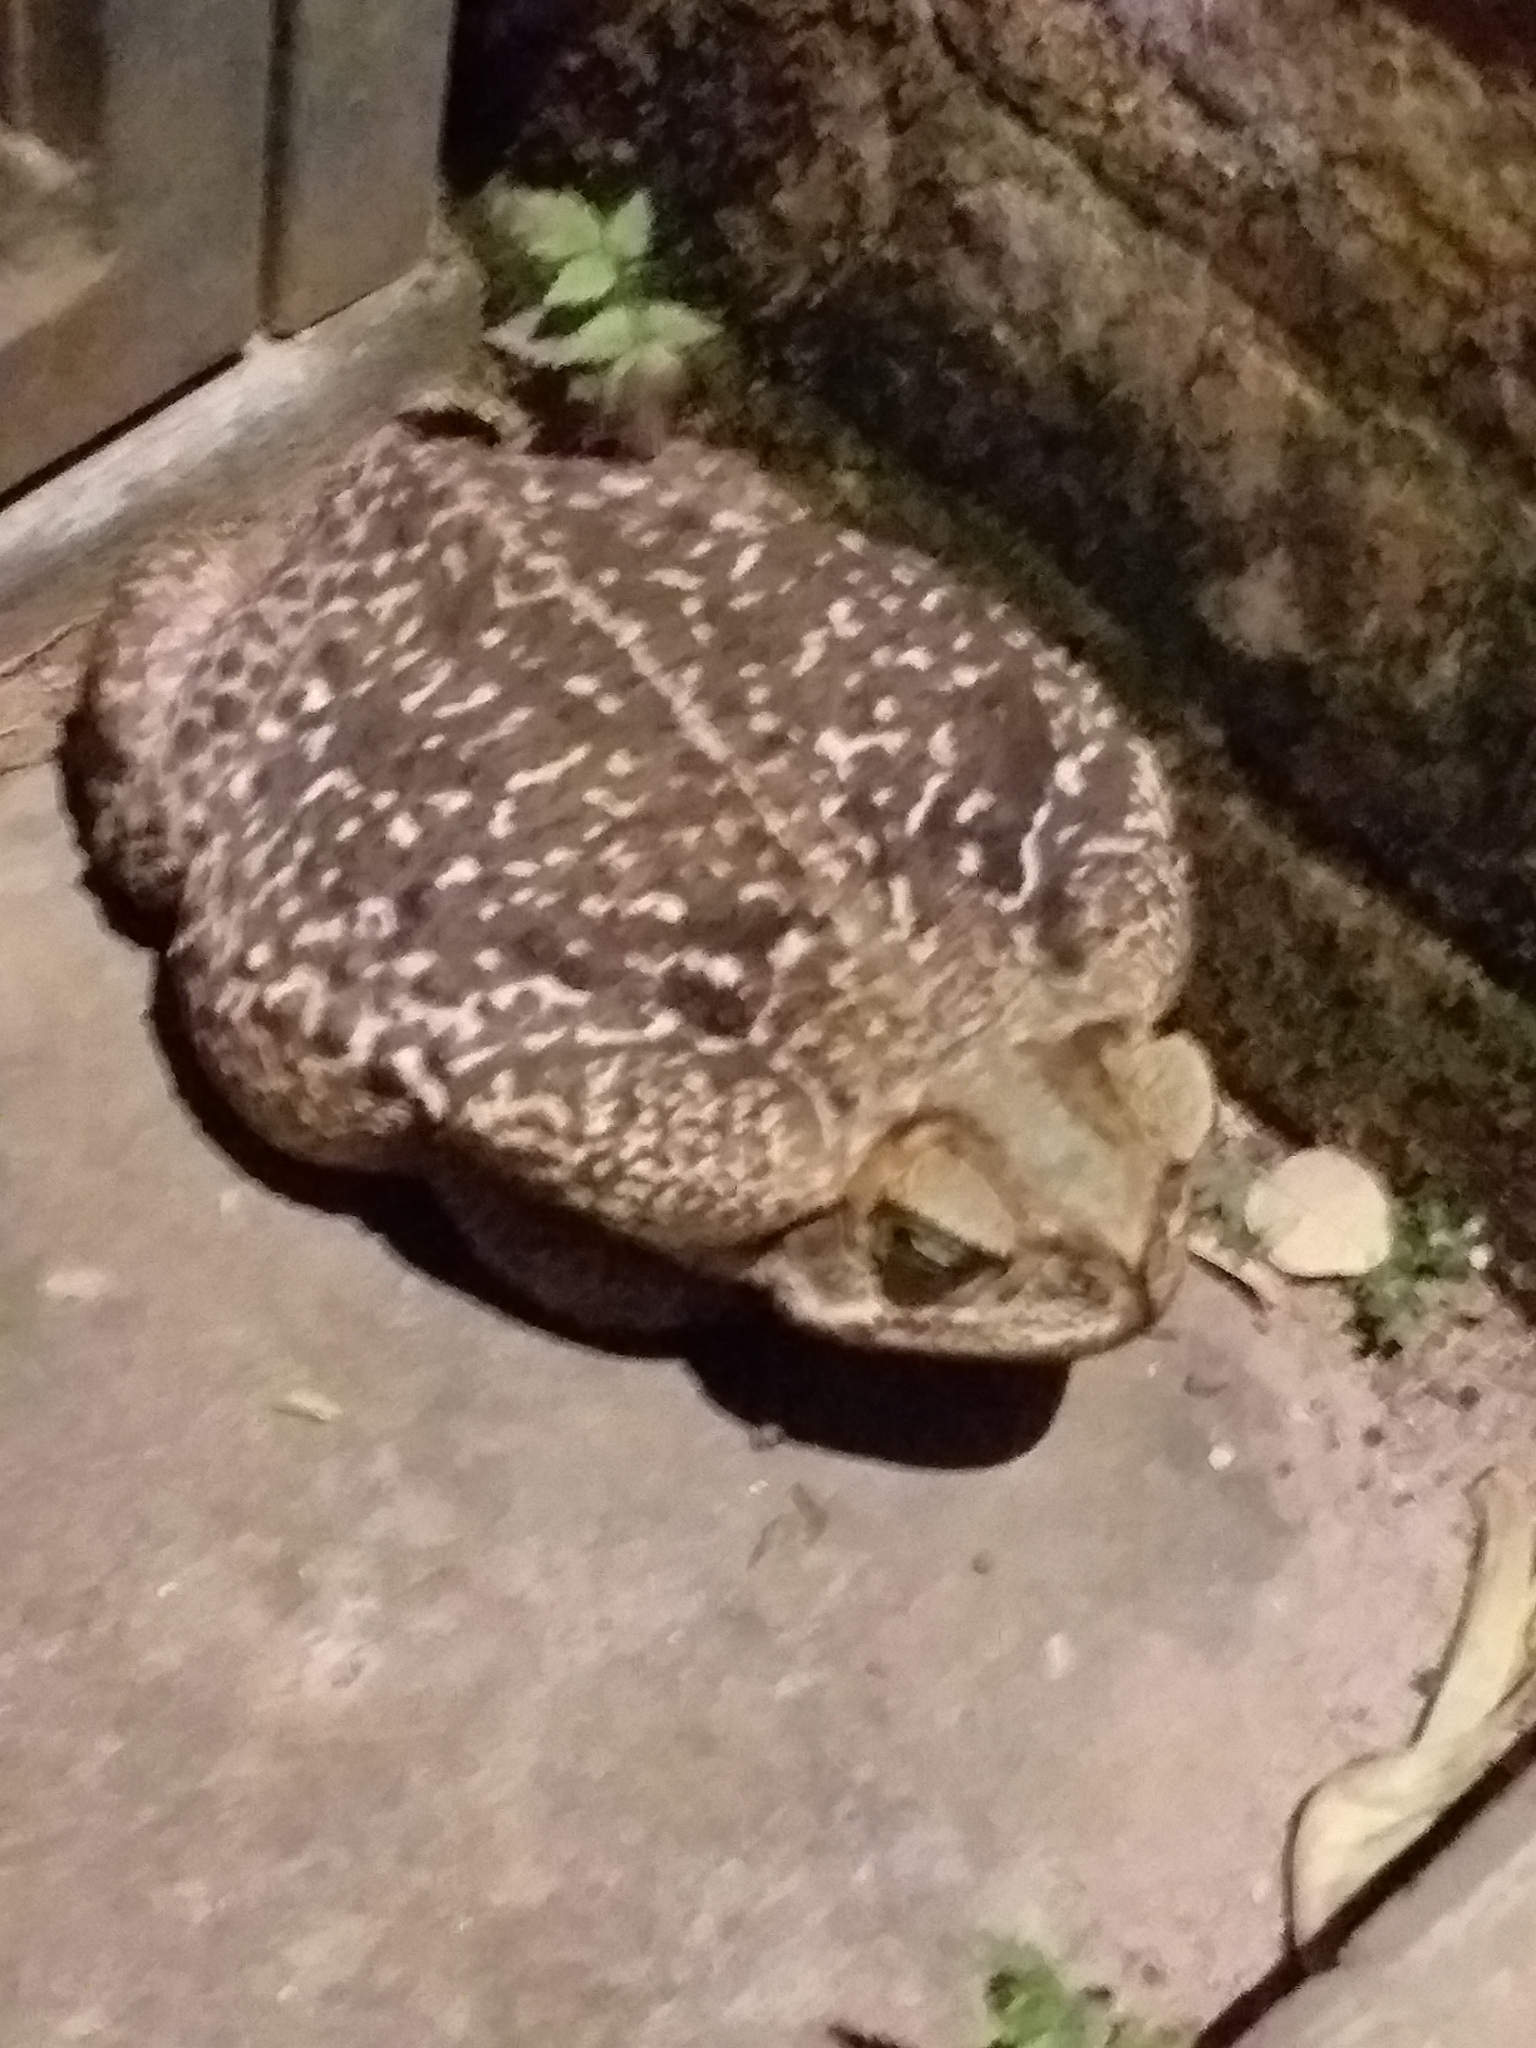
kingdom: Animalia
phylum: Chordata
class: Amphibia
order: Anura
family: Bufonidae
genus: Rhinella
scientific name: Rhinella diptycha
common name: Cope's toad
